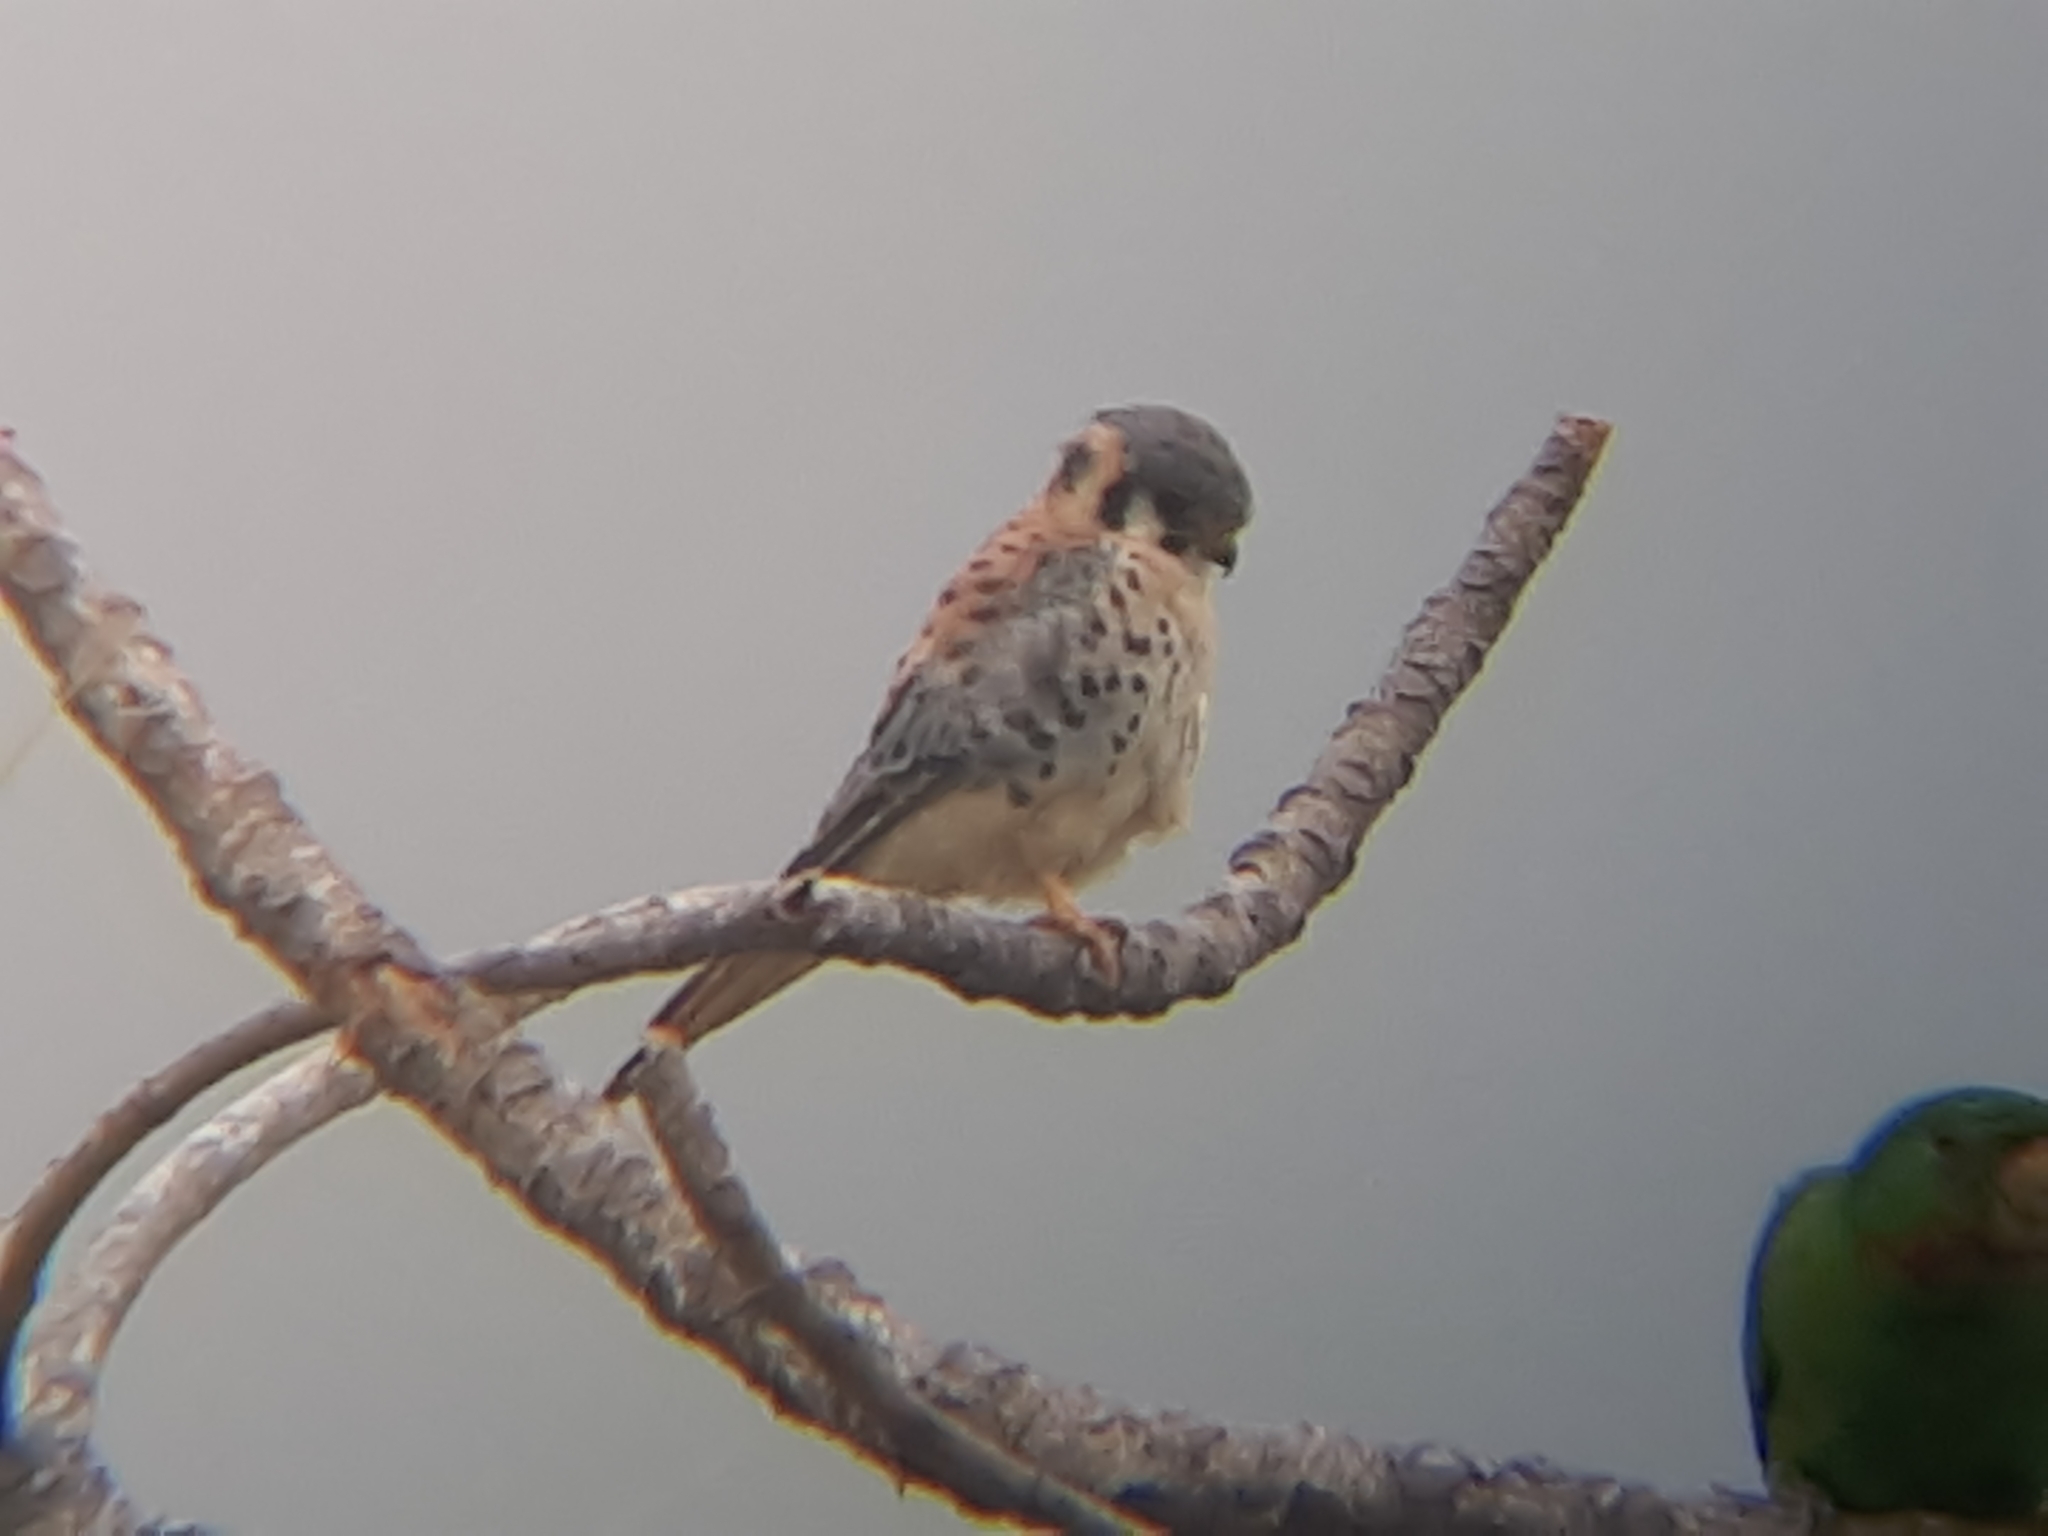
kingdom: Animalia
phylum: Chordata
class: Aves
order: Falconiformes
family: Falconidae
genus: Falco
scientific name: Falco sparverius
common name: American kestrel
